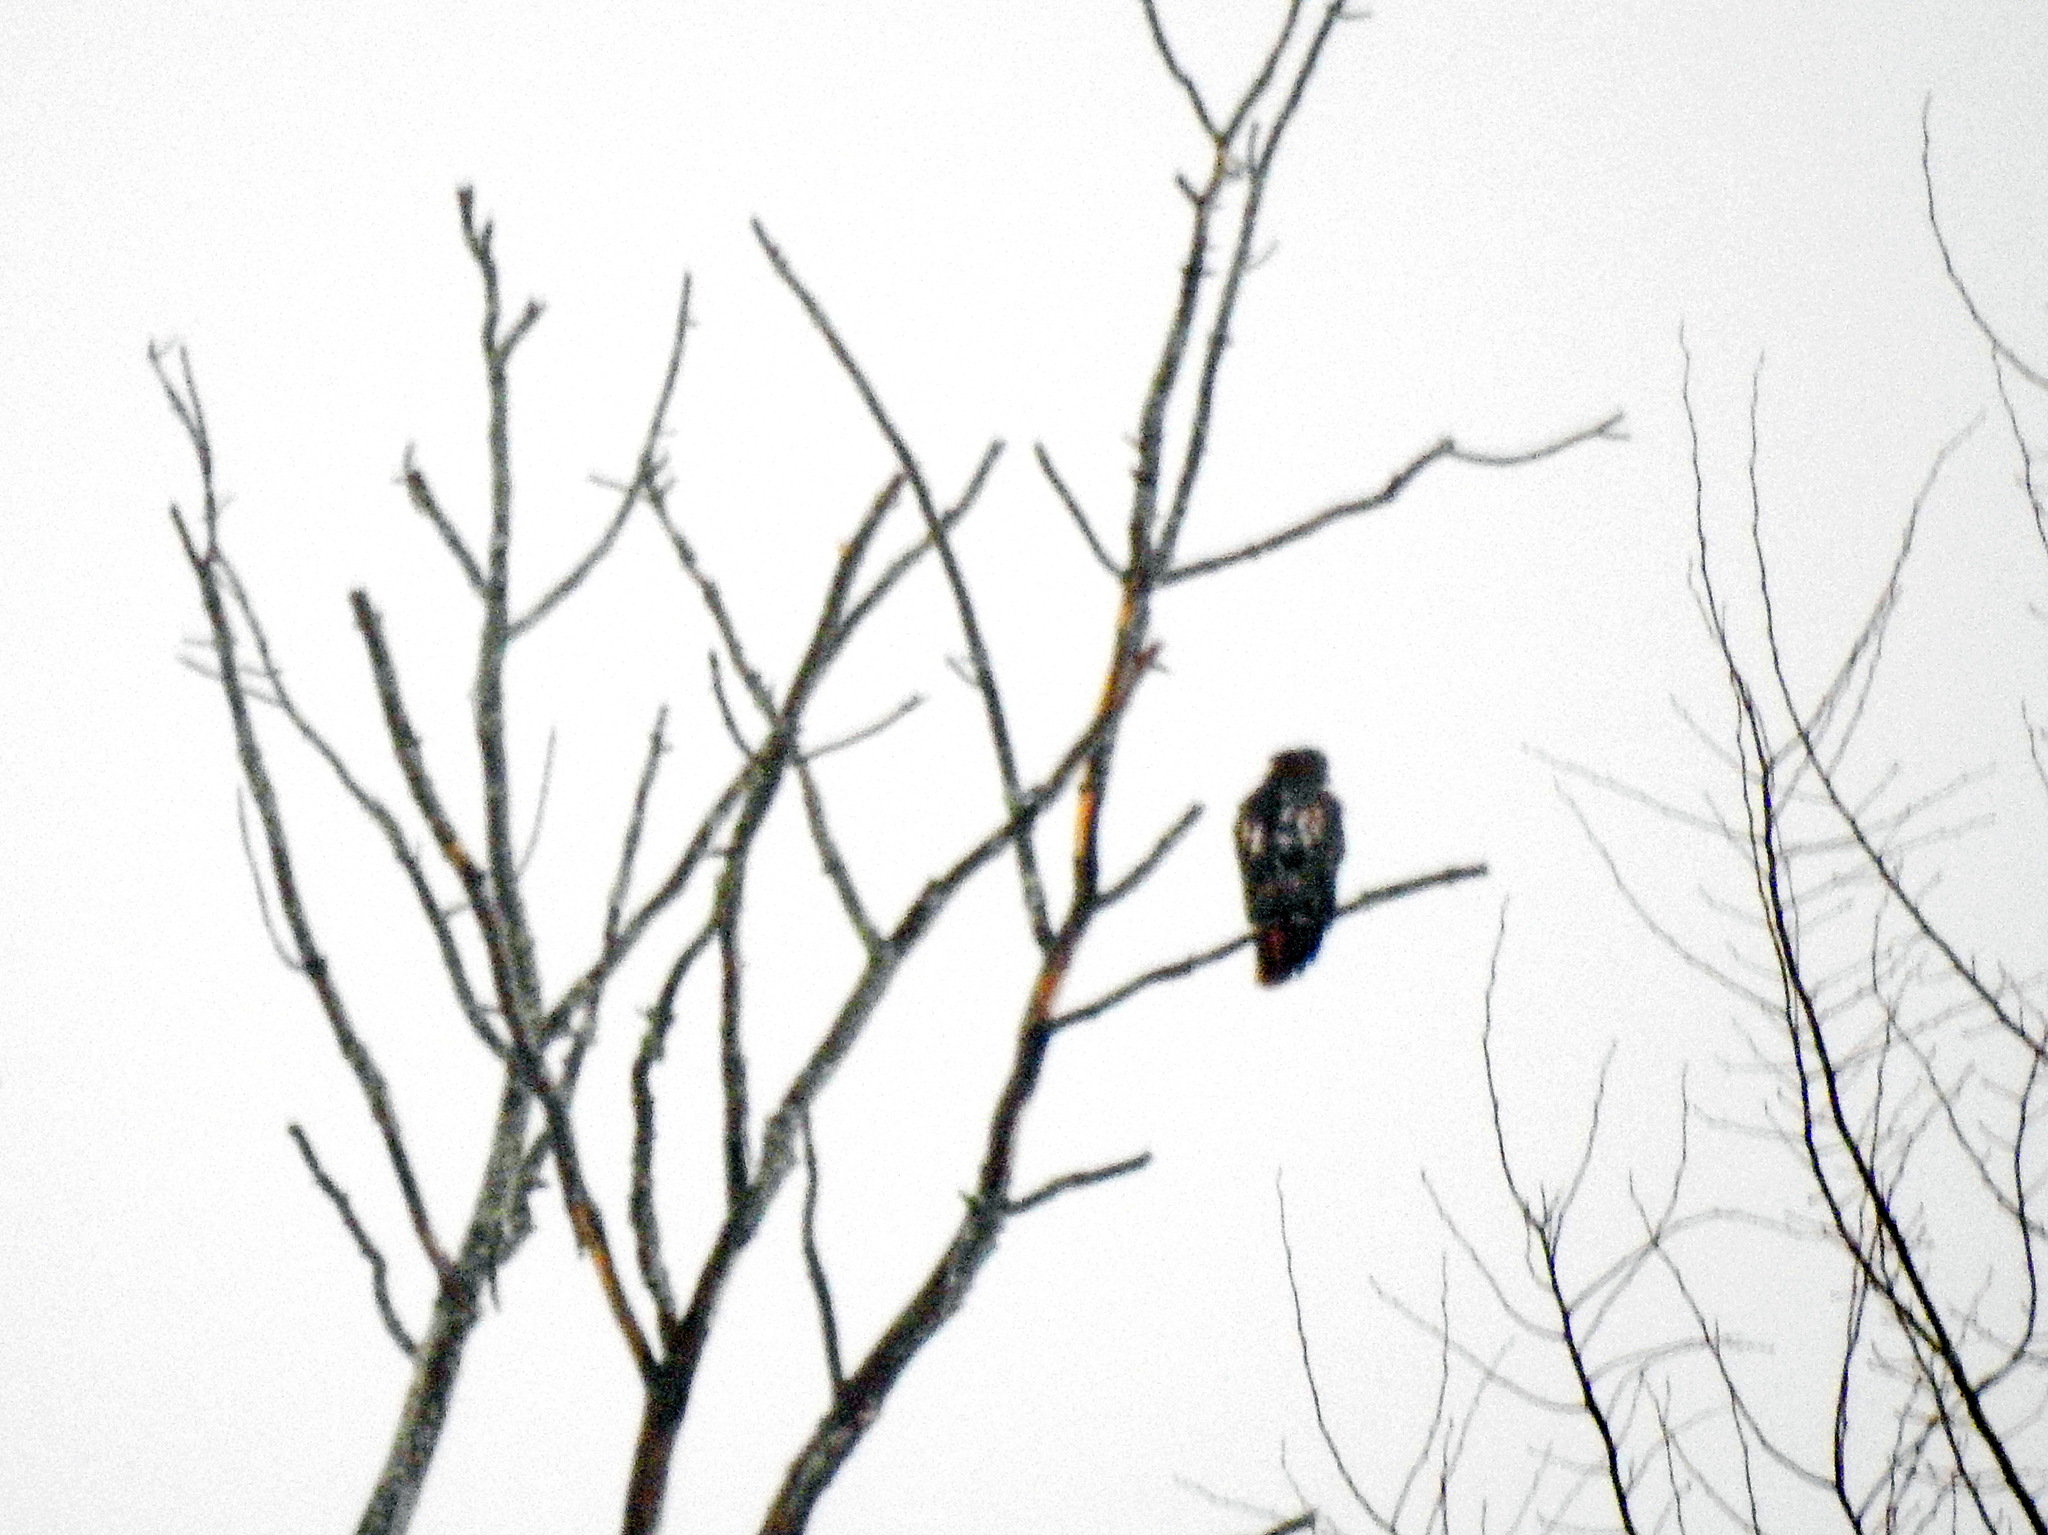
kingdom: Animalia
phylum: Chordata
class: Aves
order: Accipitriformes
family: Accipitridae
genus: Buteo
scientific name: Buteo jamaicensis
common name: Red-tailed hawk
